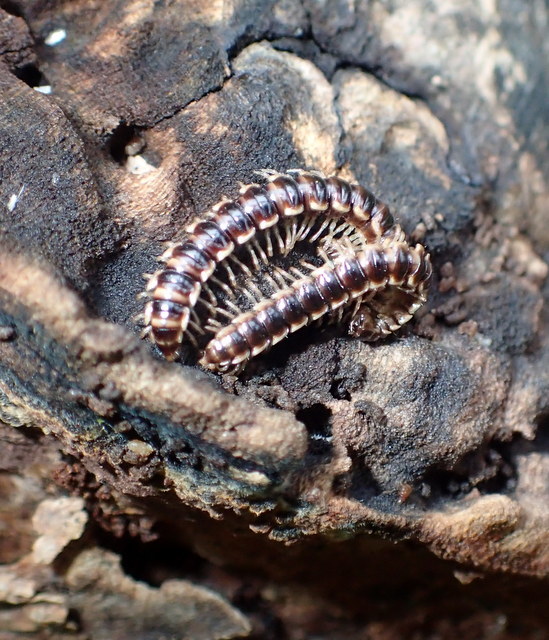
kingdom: Animalia
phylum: Arthropoda
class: Diplopoda
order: Polydesmida
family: Paradoxosomatidae
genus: Oxidus
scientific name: Oxidus gracilis
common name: Greenhouse millipede
